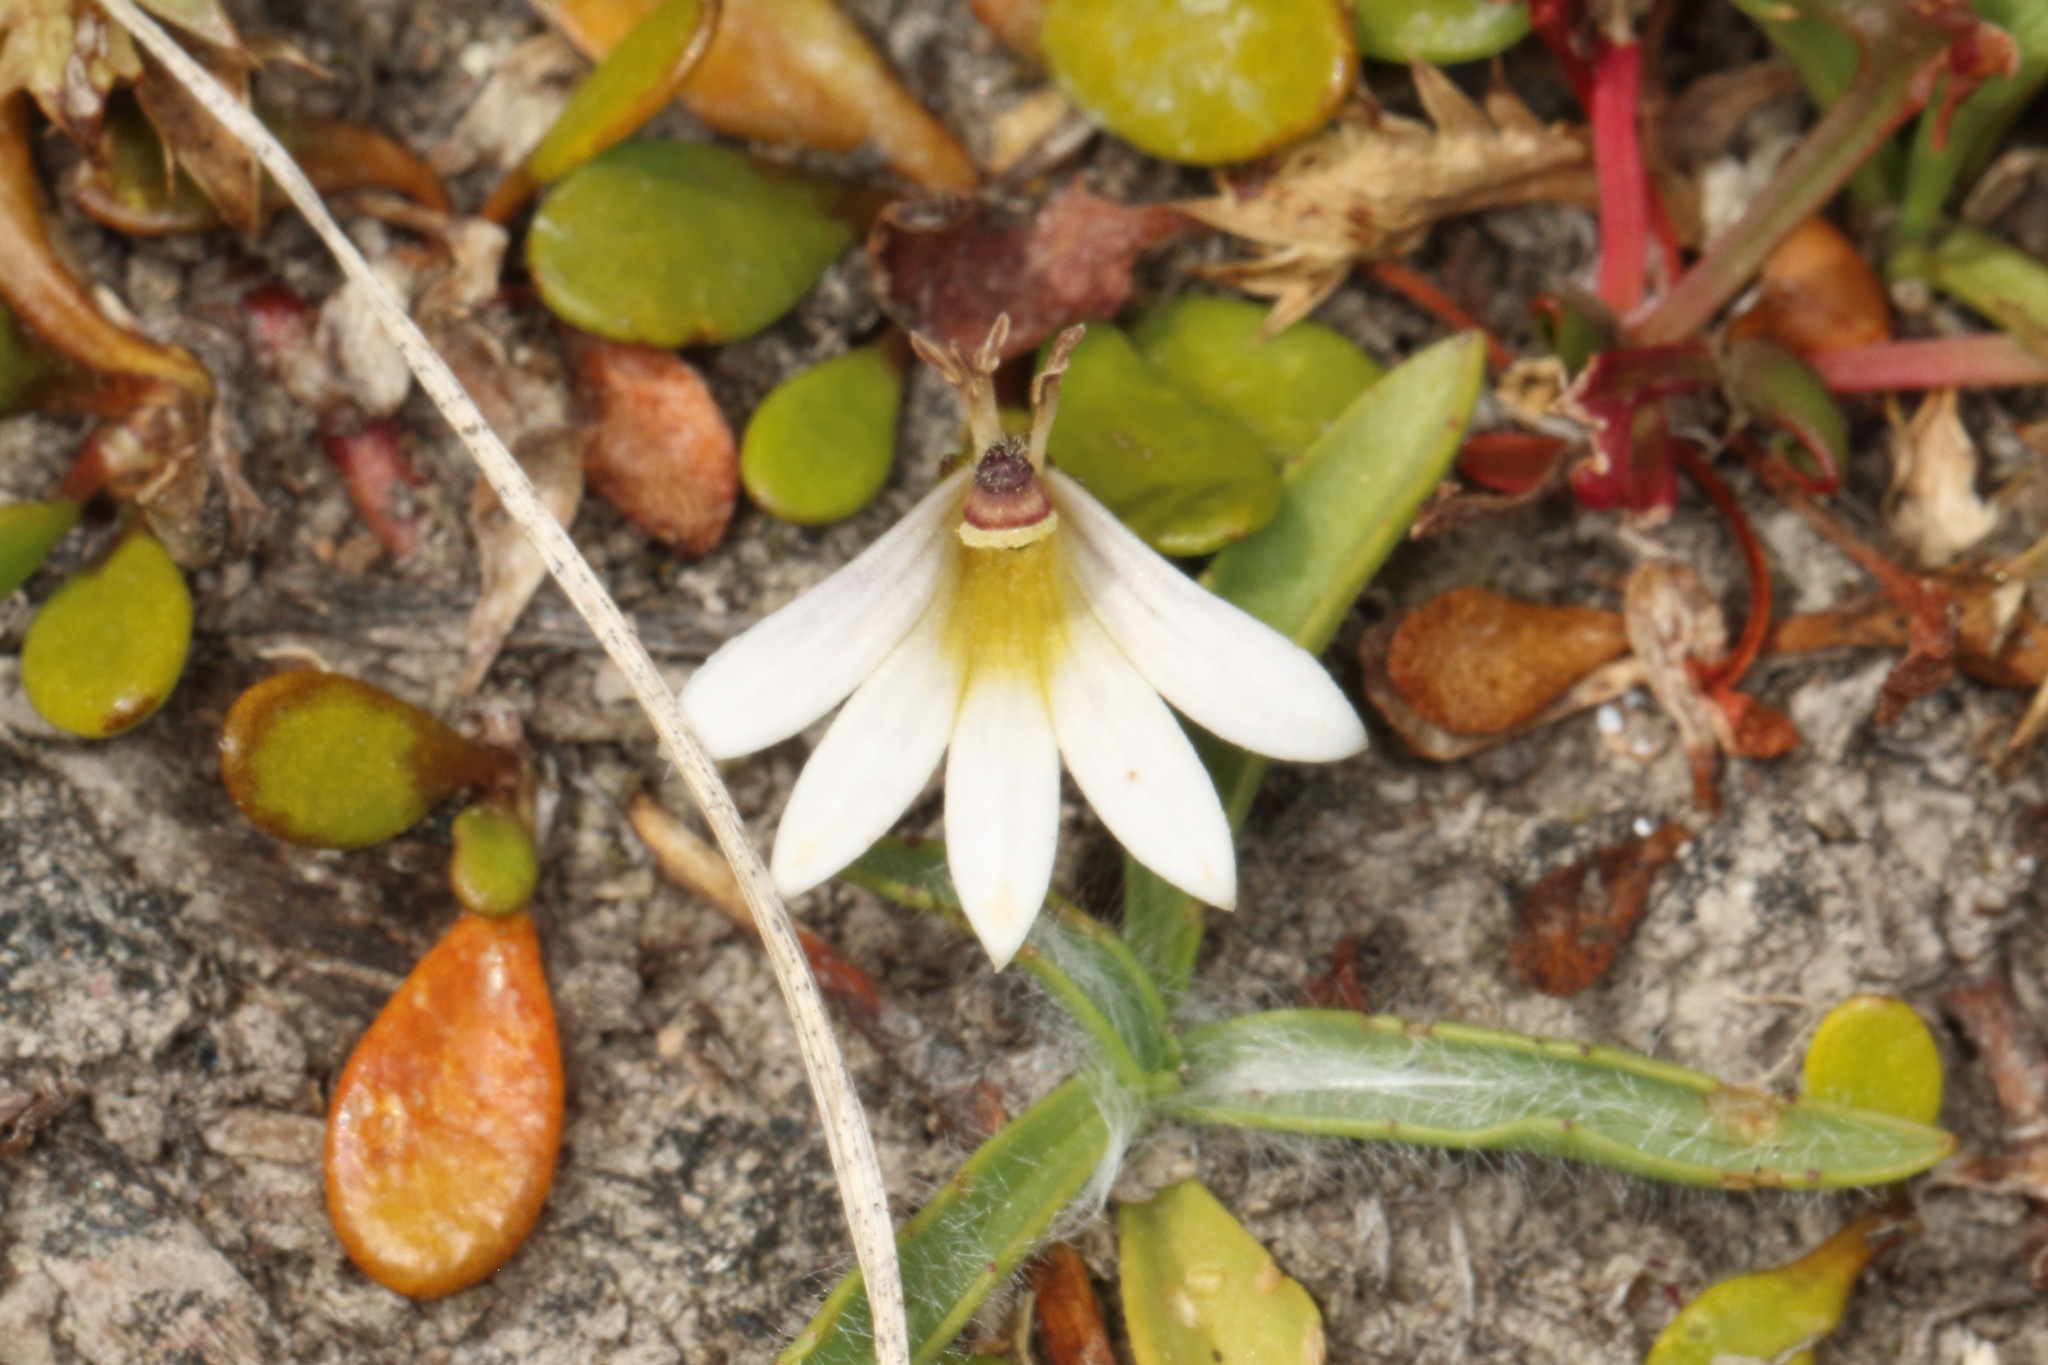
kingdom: Plantae
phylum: Tracheophyta
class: Magnoliopsida
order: Asterales
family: Goodeniaceae
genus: Goodenia
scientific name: Goodenia radicans
